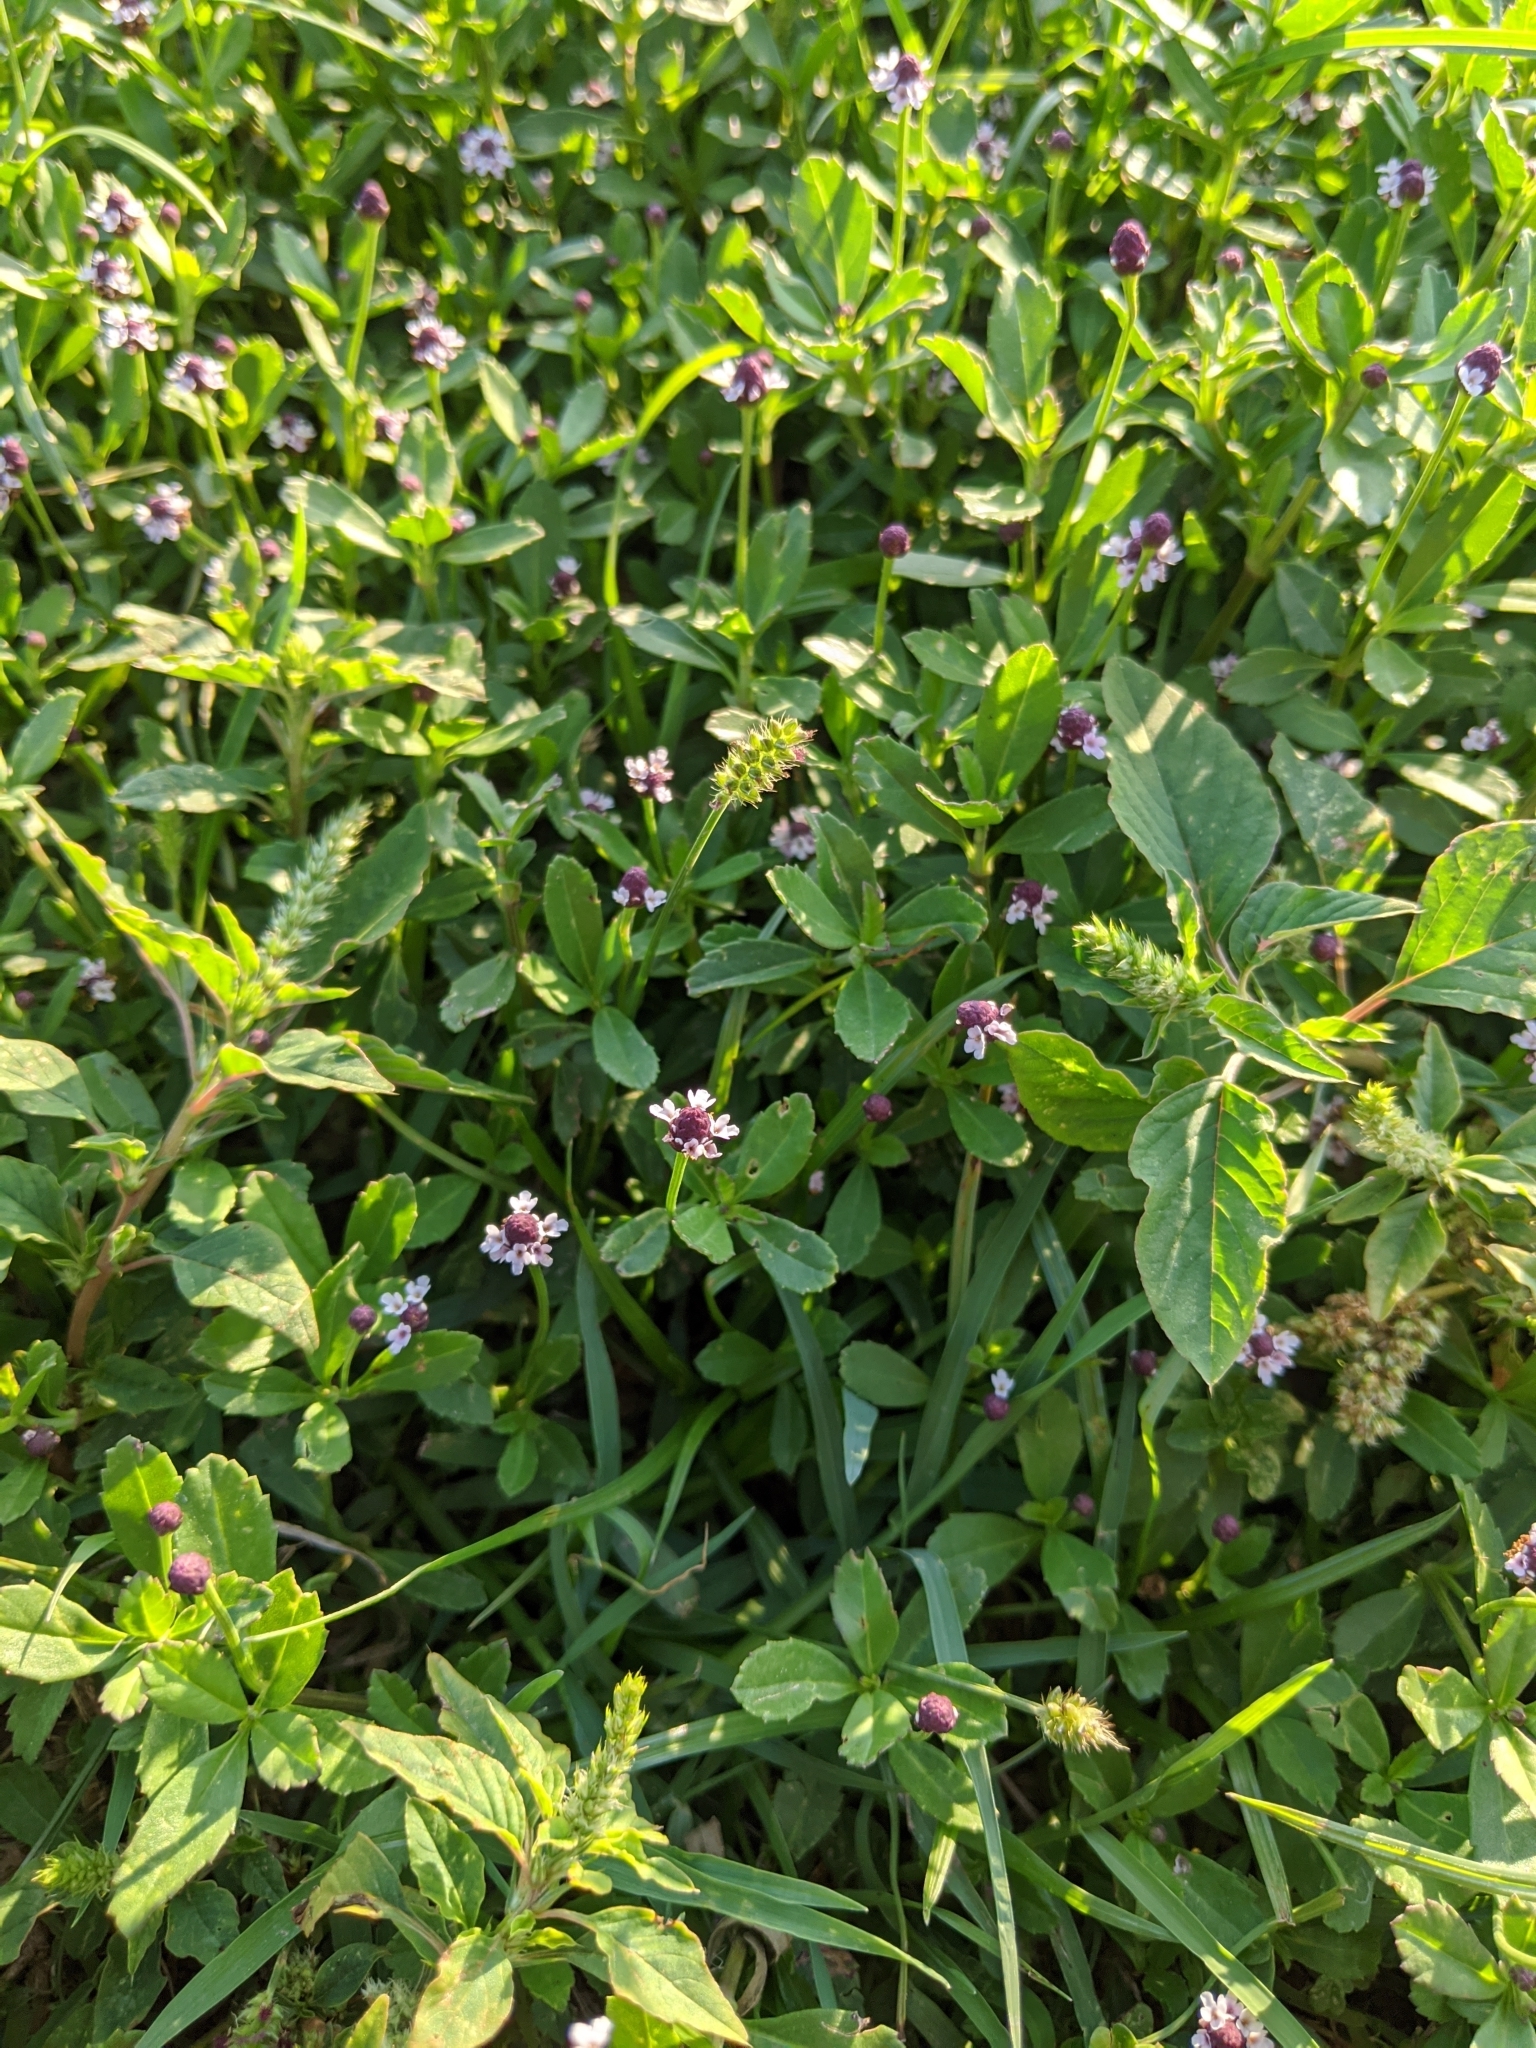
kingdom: Plantae
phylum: Tracheophyta
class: Magnoliopsida
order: Lamiales
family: Verbenaceae
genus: Phyla
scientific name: Phyla nodiflora
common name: Frogfruit
